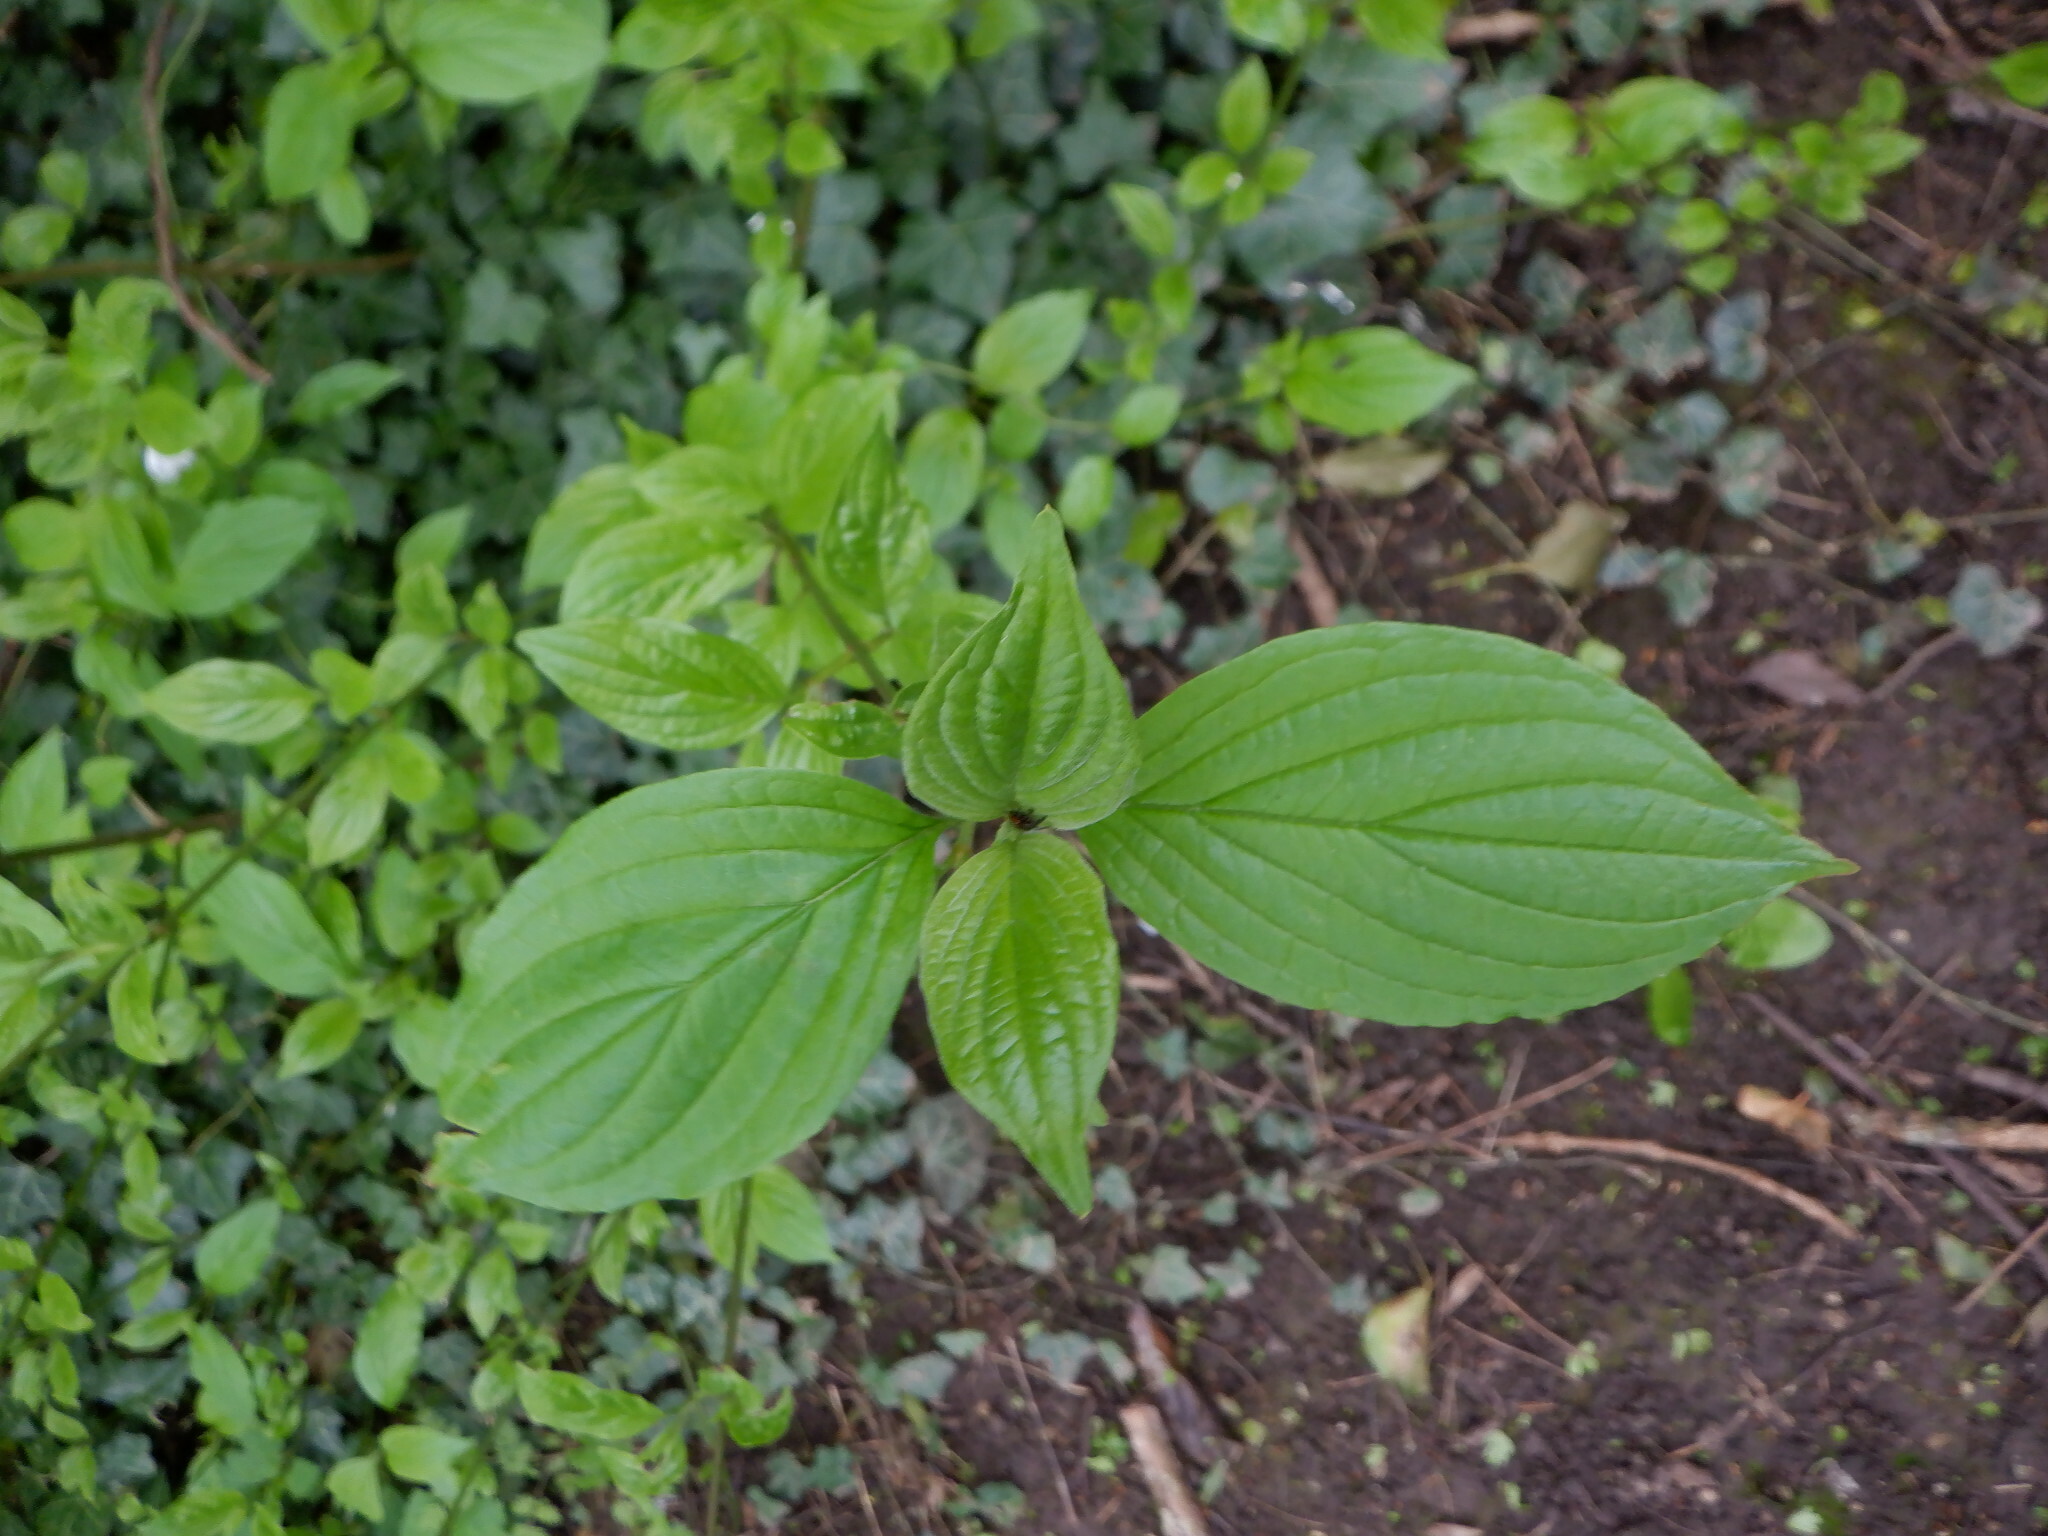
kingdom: Plantae
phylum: Tracheophyta
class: Magnoliopsida
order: Cornales
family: Cornaceae
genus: Cornus
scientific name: Cornus sanguinea
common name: Dogwood
